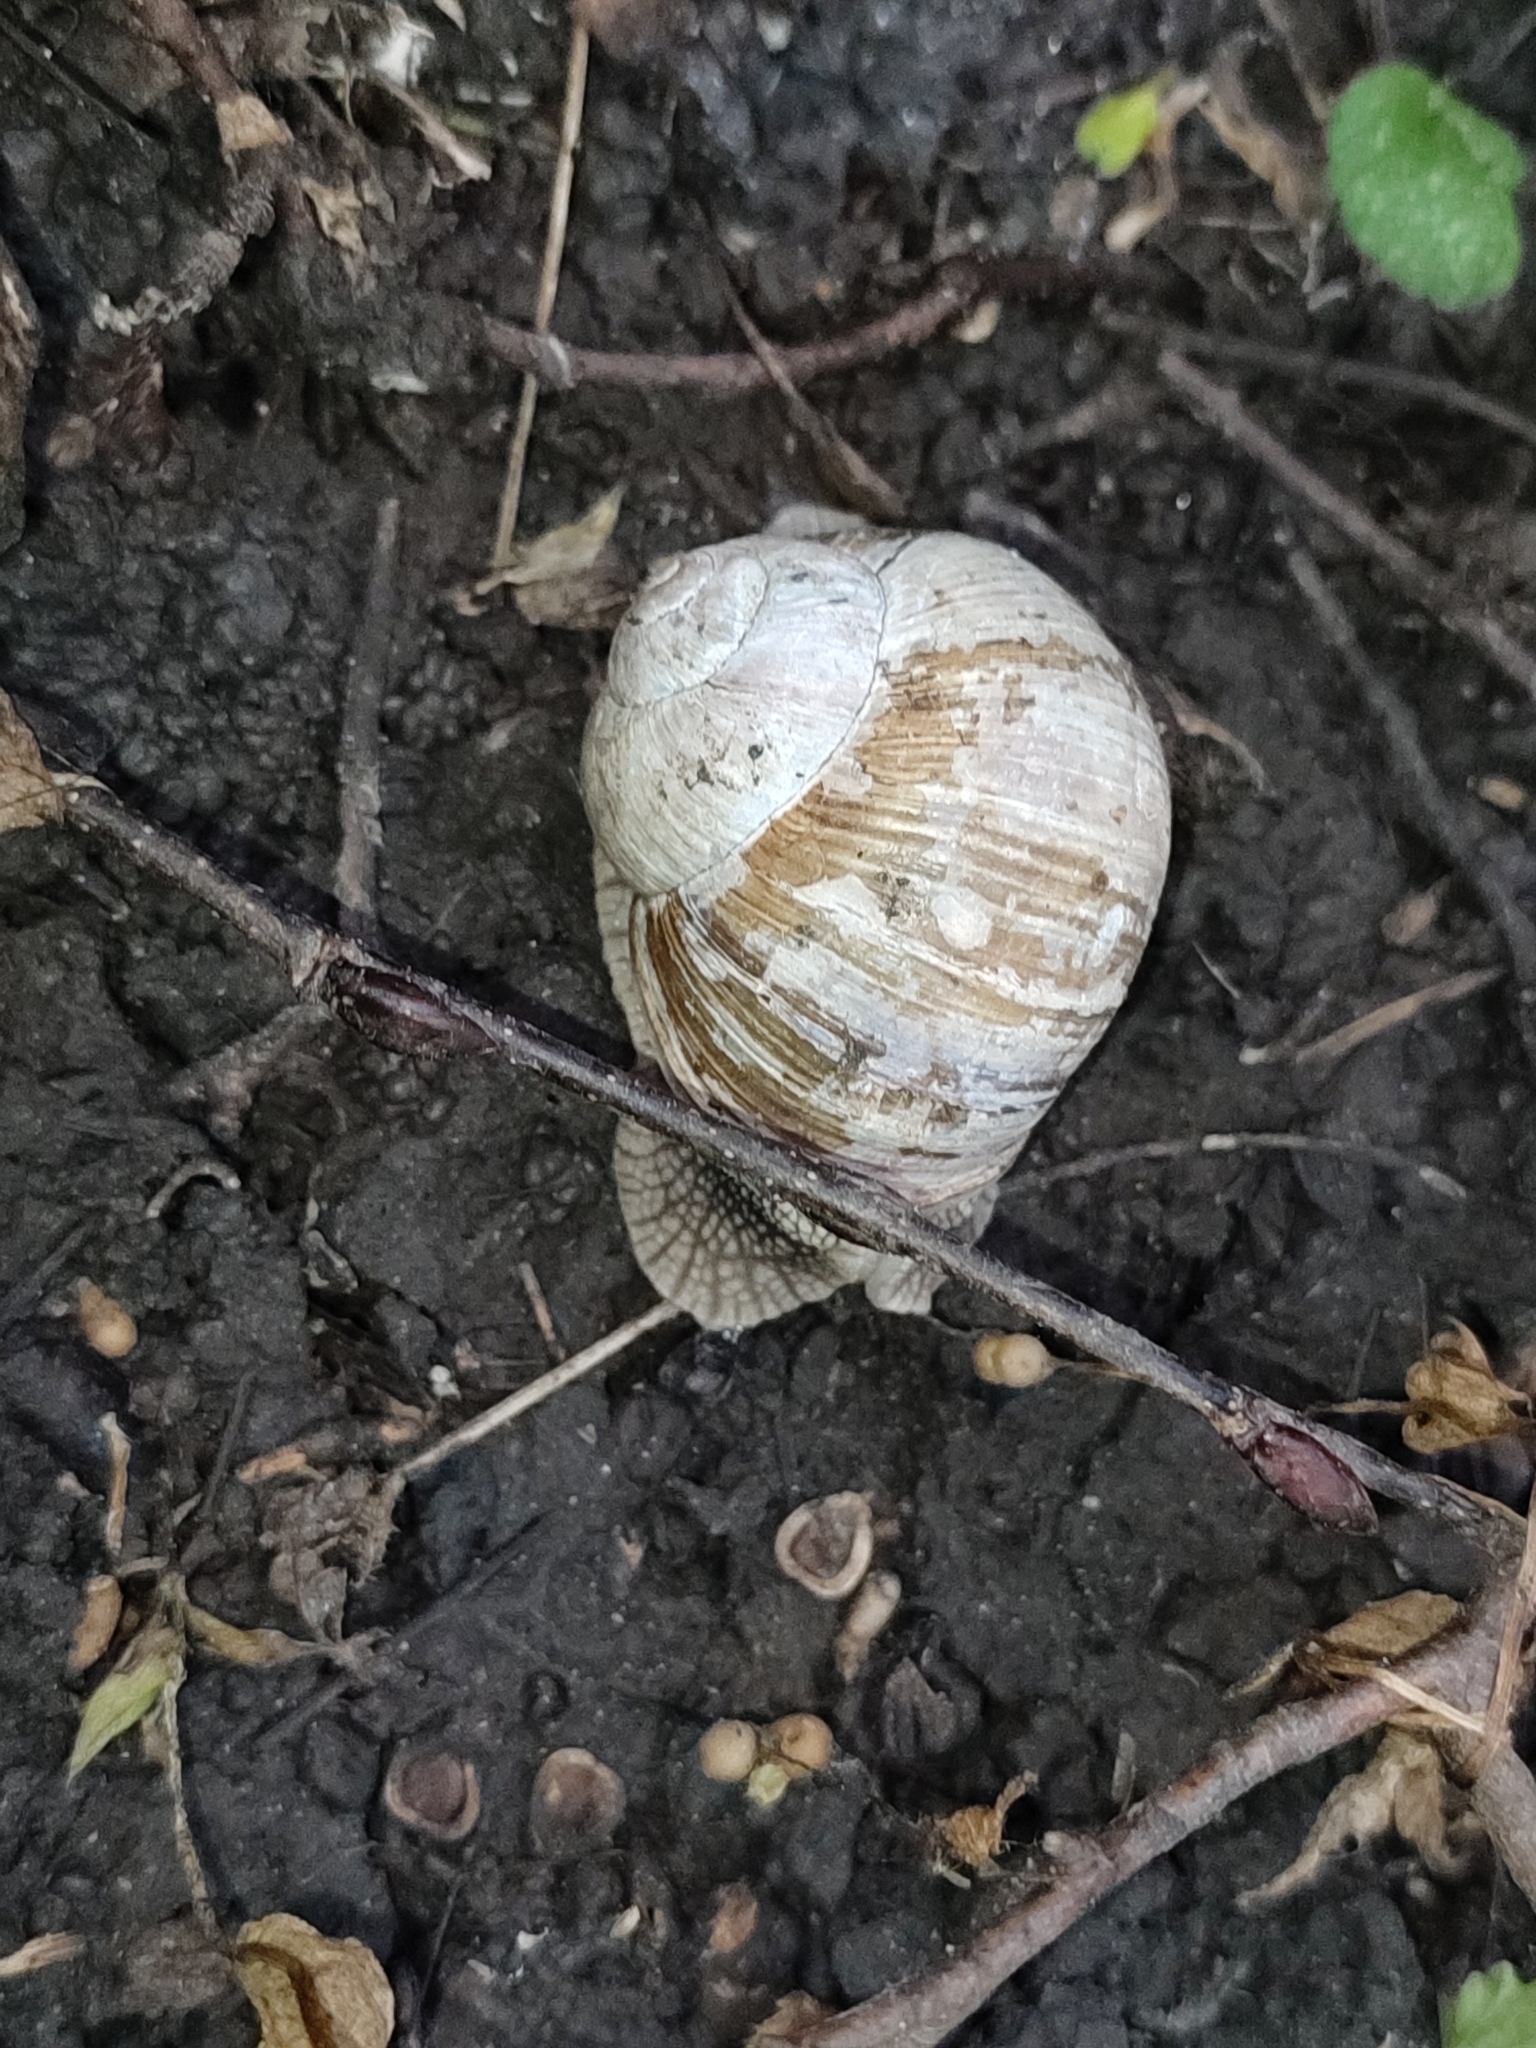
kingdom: Animalia
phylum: Mollusca
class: Gastropoda
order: Stylommatophora
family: Helicidae
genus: Helix
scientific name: Helix pomatia
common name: Roman snail
